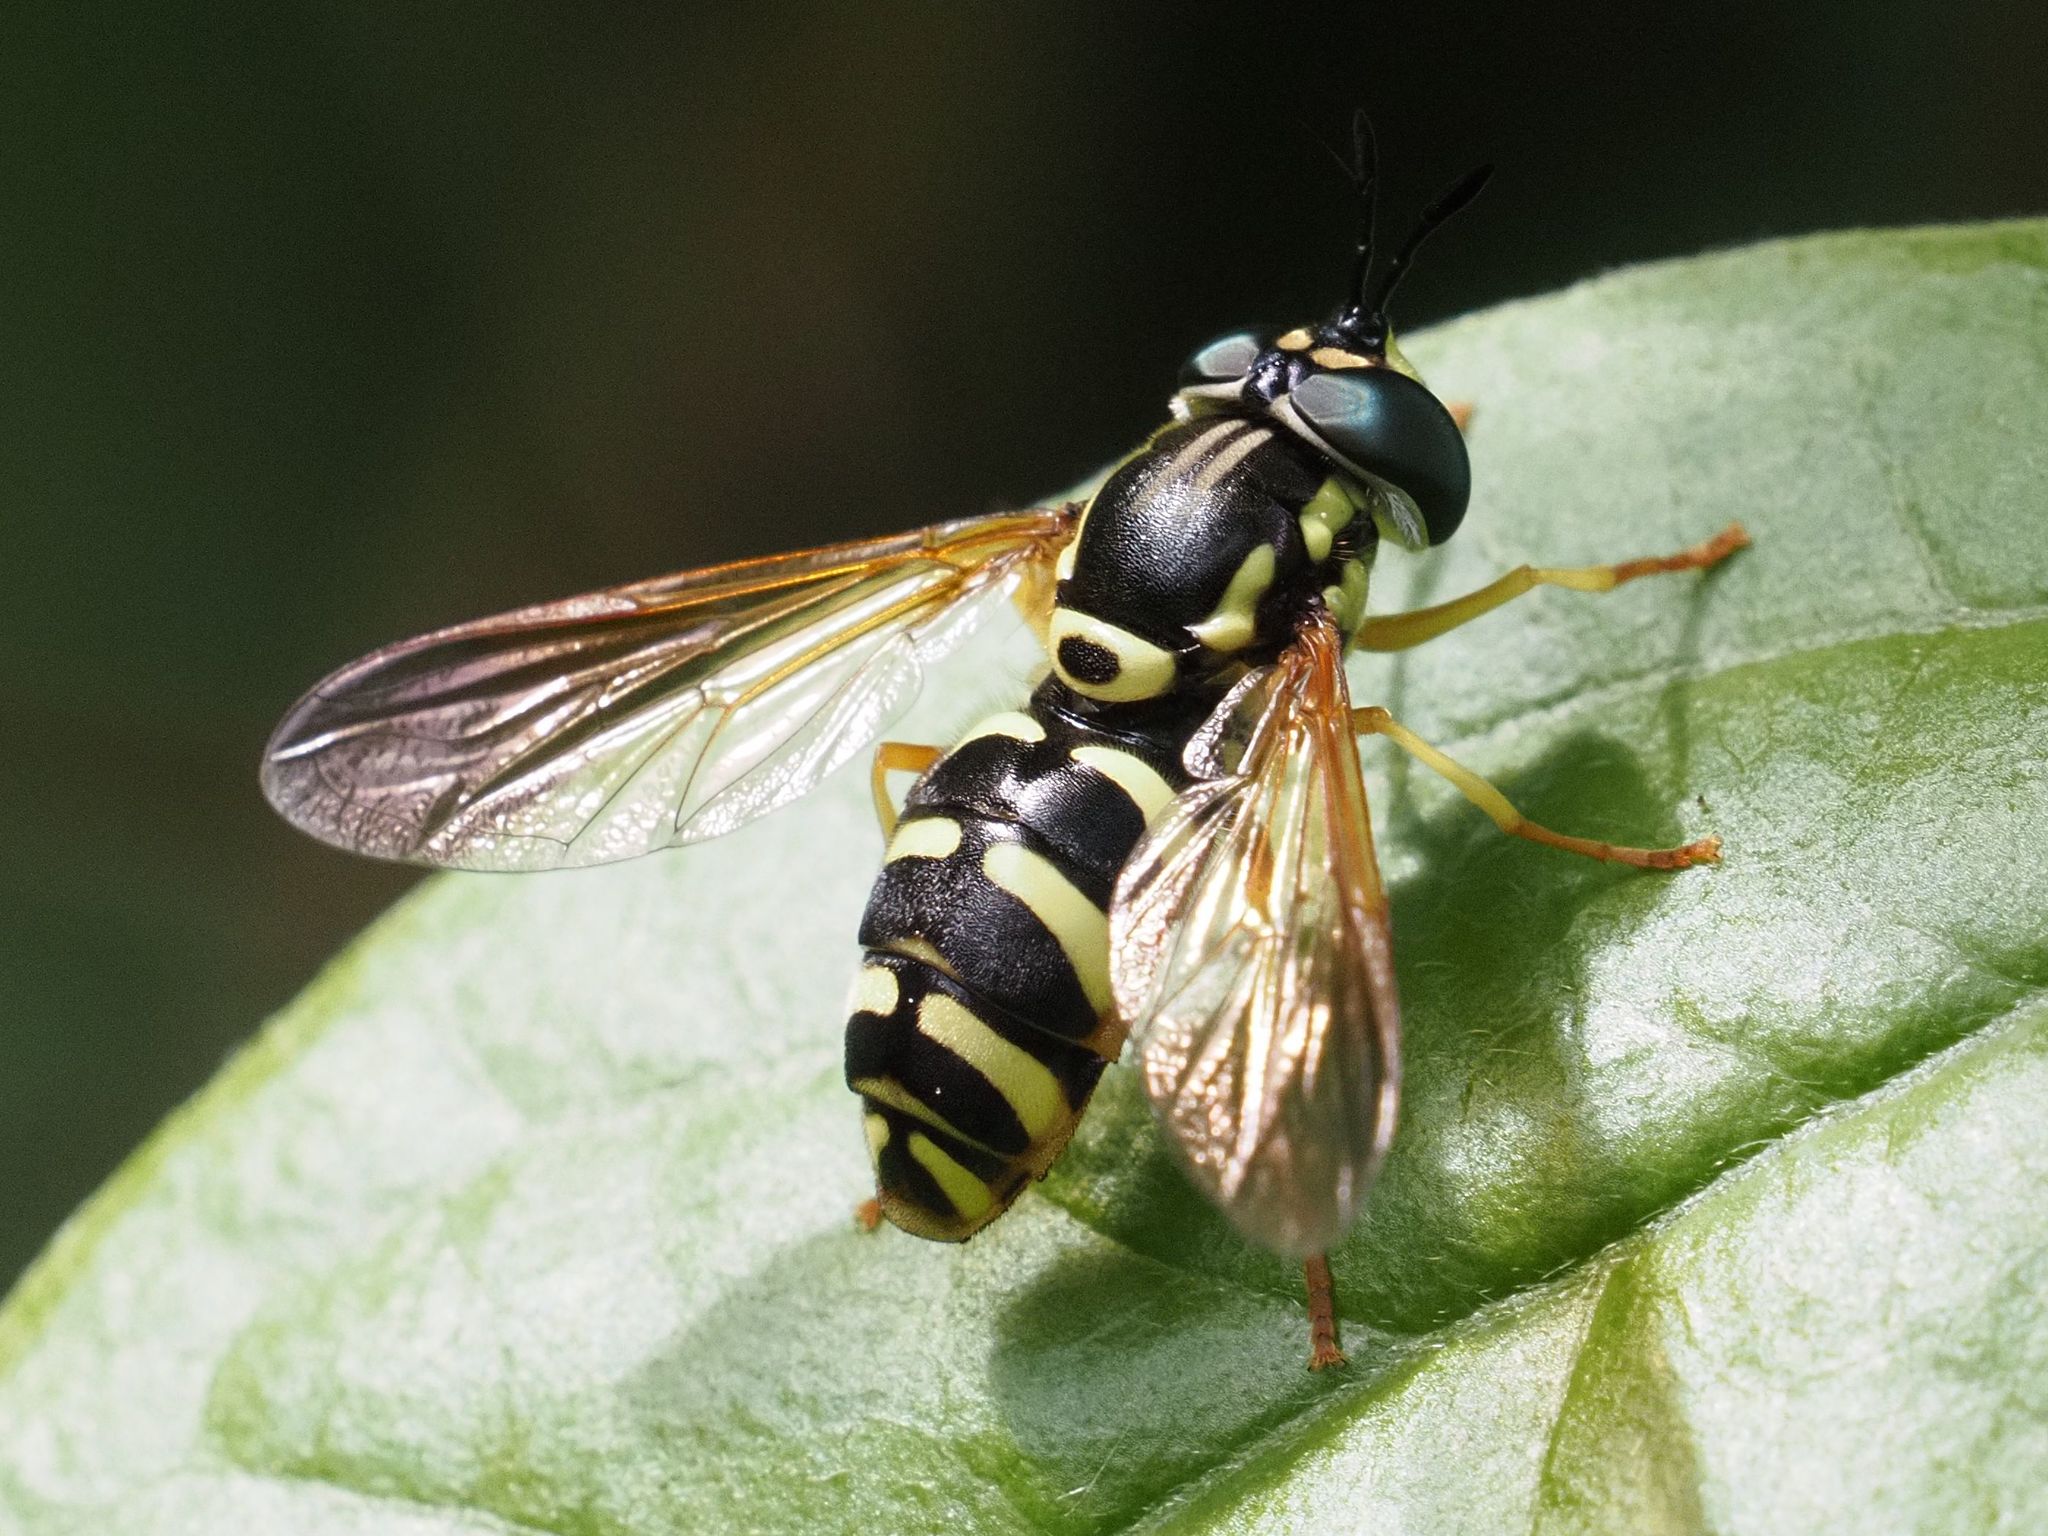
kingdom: Animalia
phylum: Arthropoda
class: Insecta
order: Diptera
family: Syrphidae
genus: Chrysotoxum
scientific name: Chrysotoxum elegans
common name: Zipperback
